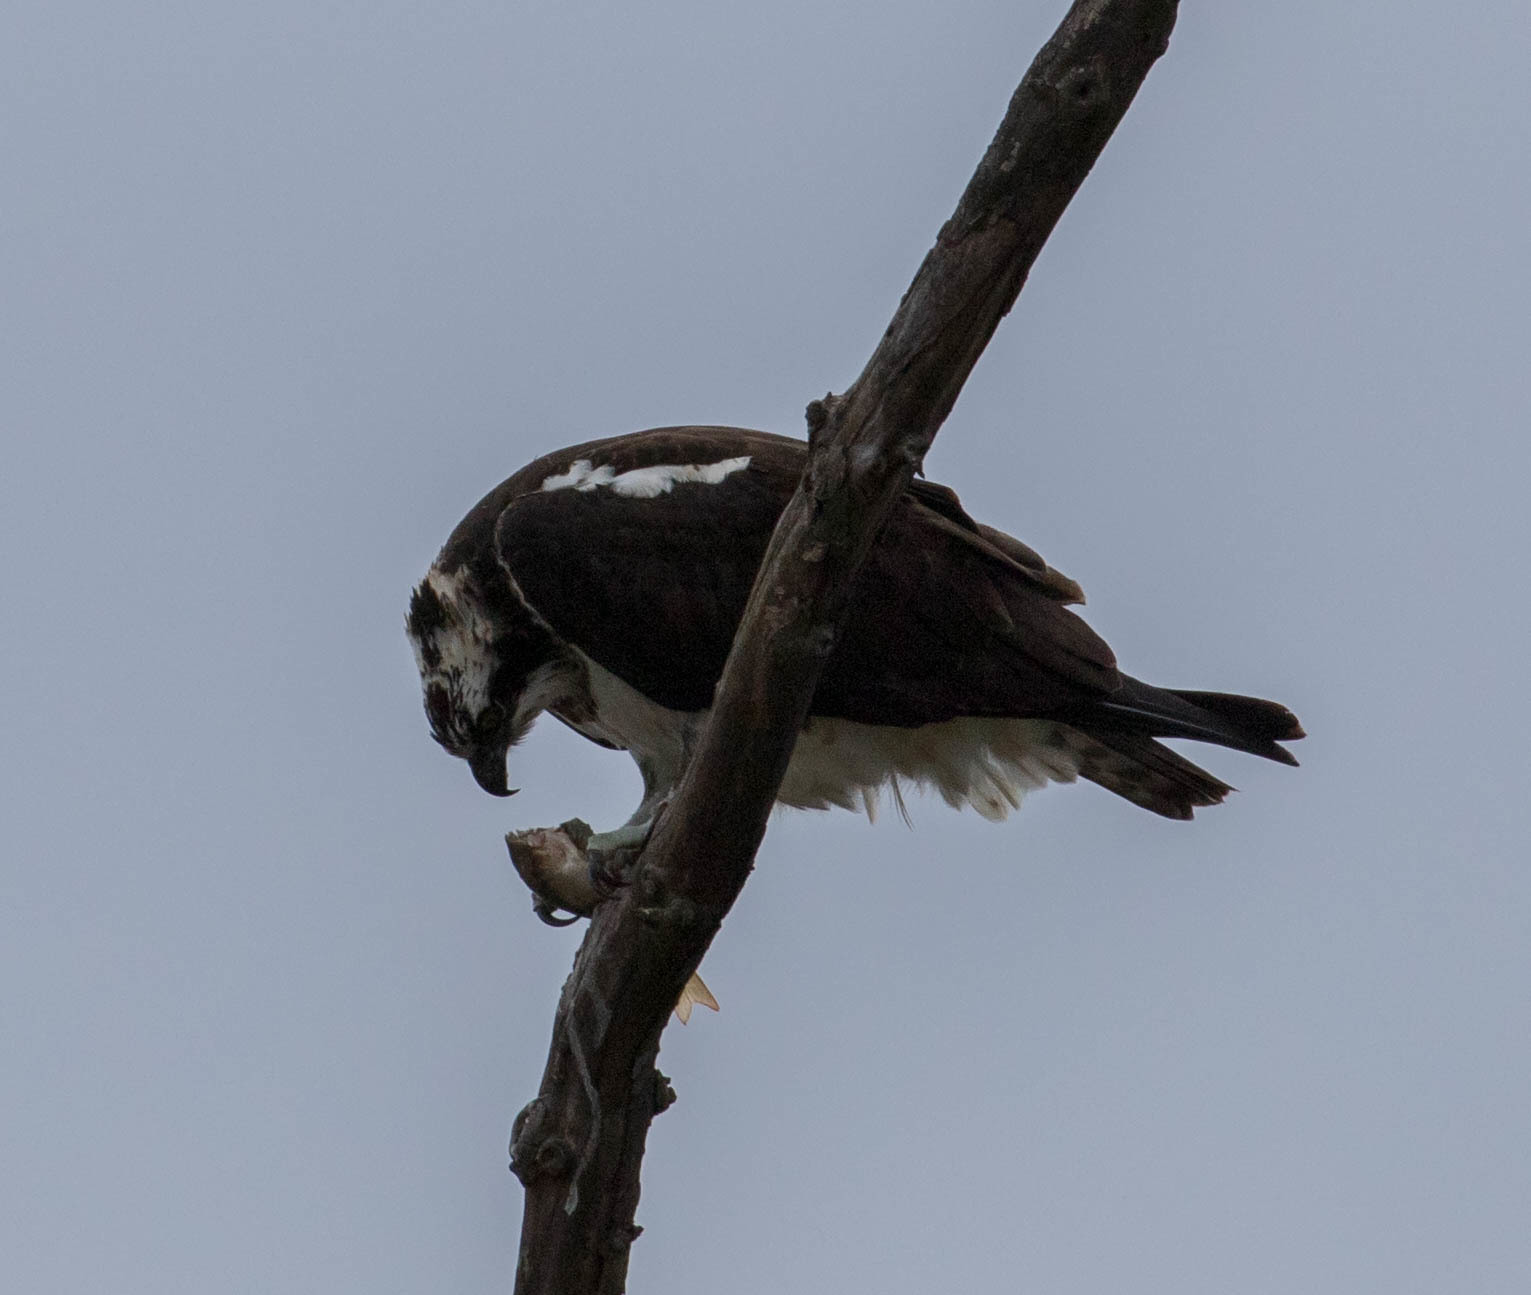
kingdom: Animalia
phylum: Chordata
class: Aves
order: Accipitriformes
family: Pandionidae
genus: Pandion
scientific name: Pandion haliaetus
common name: Osprey
